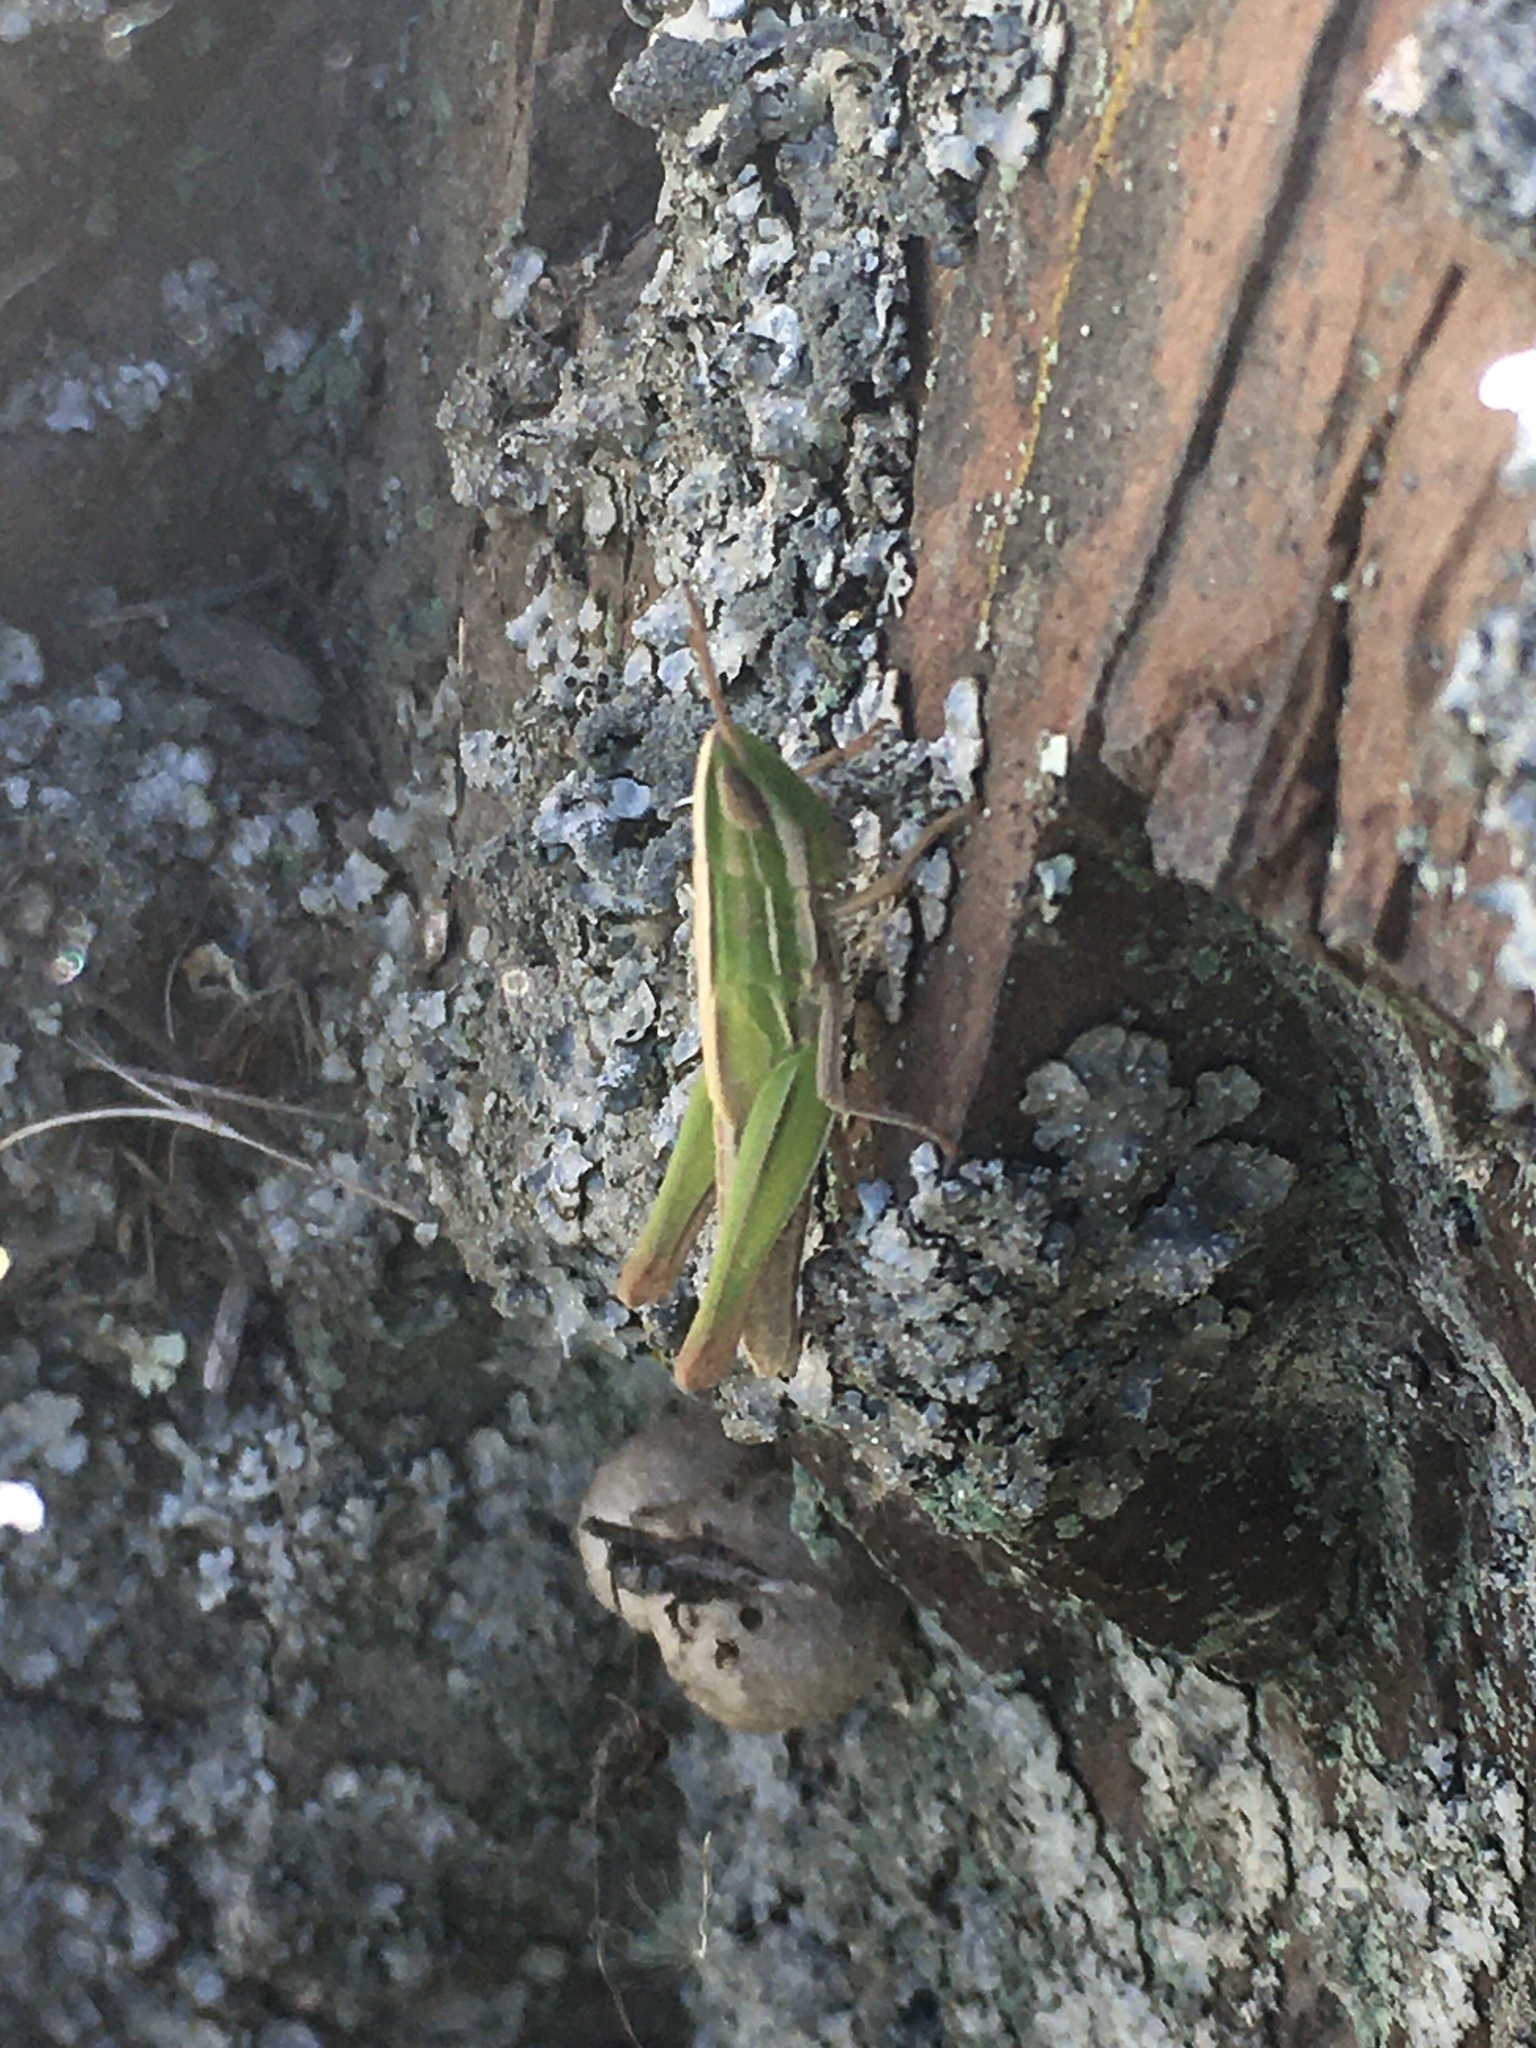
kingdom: Animalia
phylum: Arthropoda
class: Insecta
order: Orthoptera
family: Acrididae
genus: Sinipta
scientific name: Sinipta dalmani
